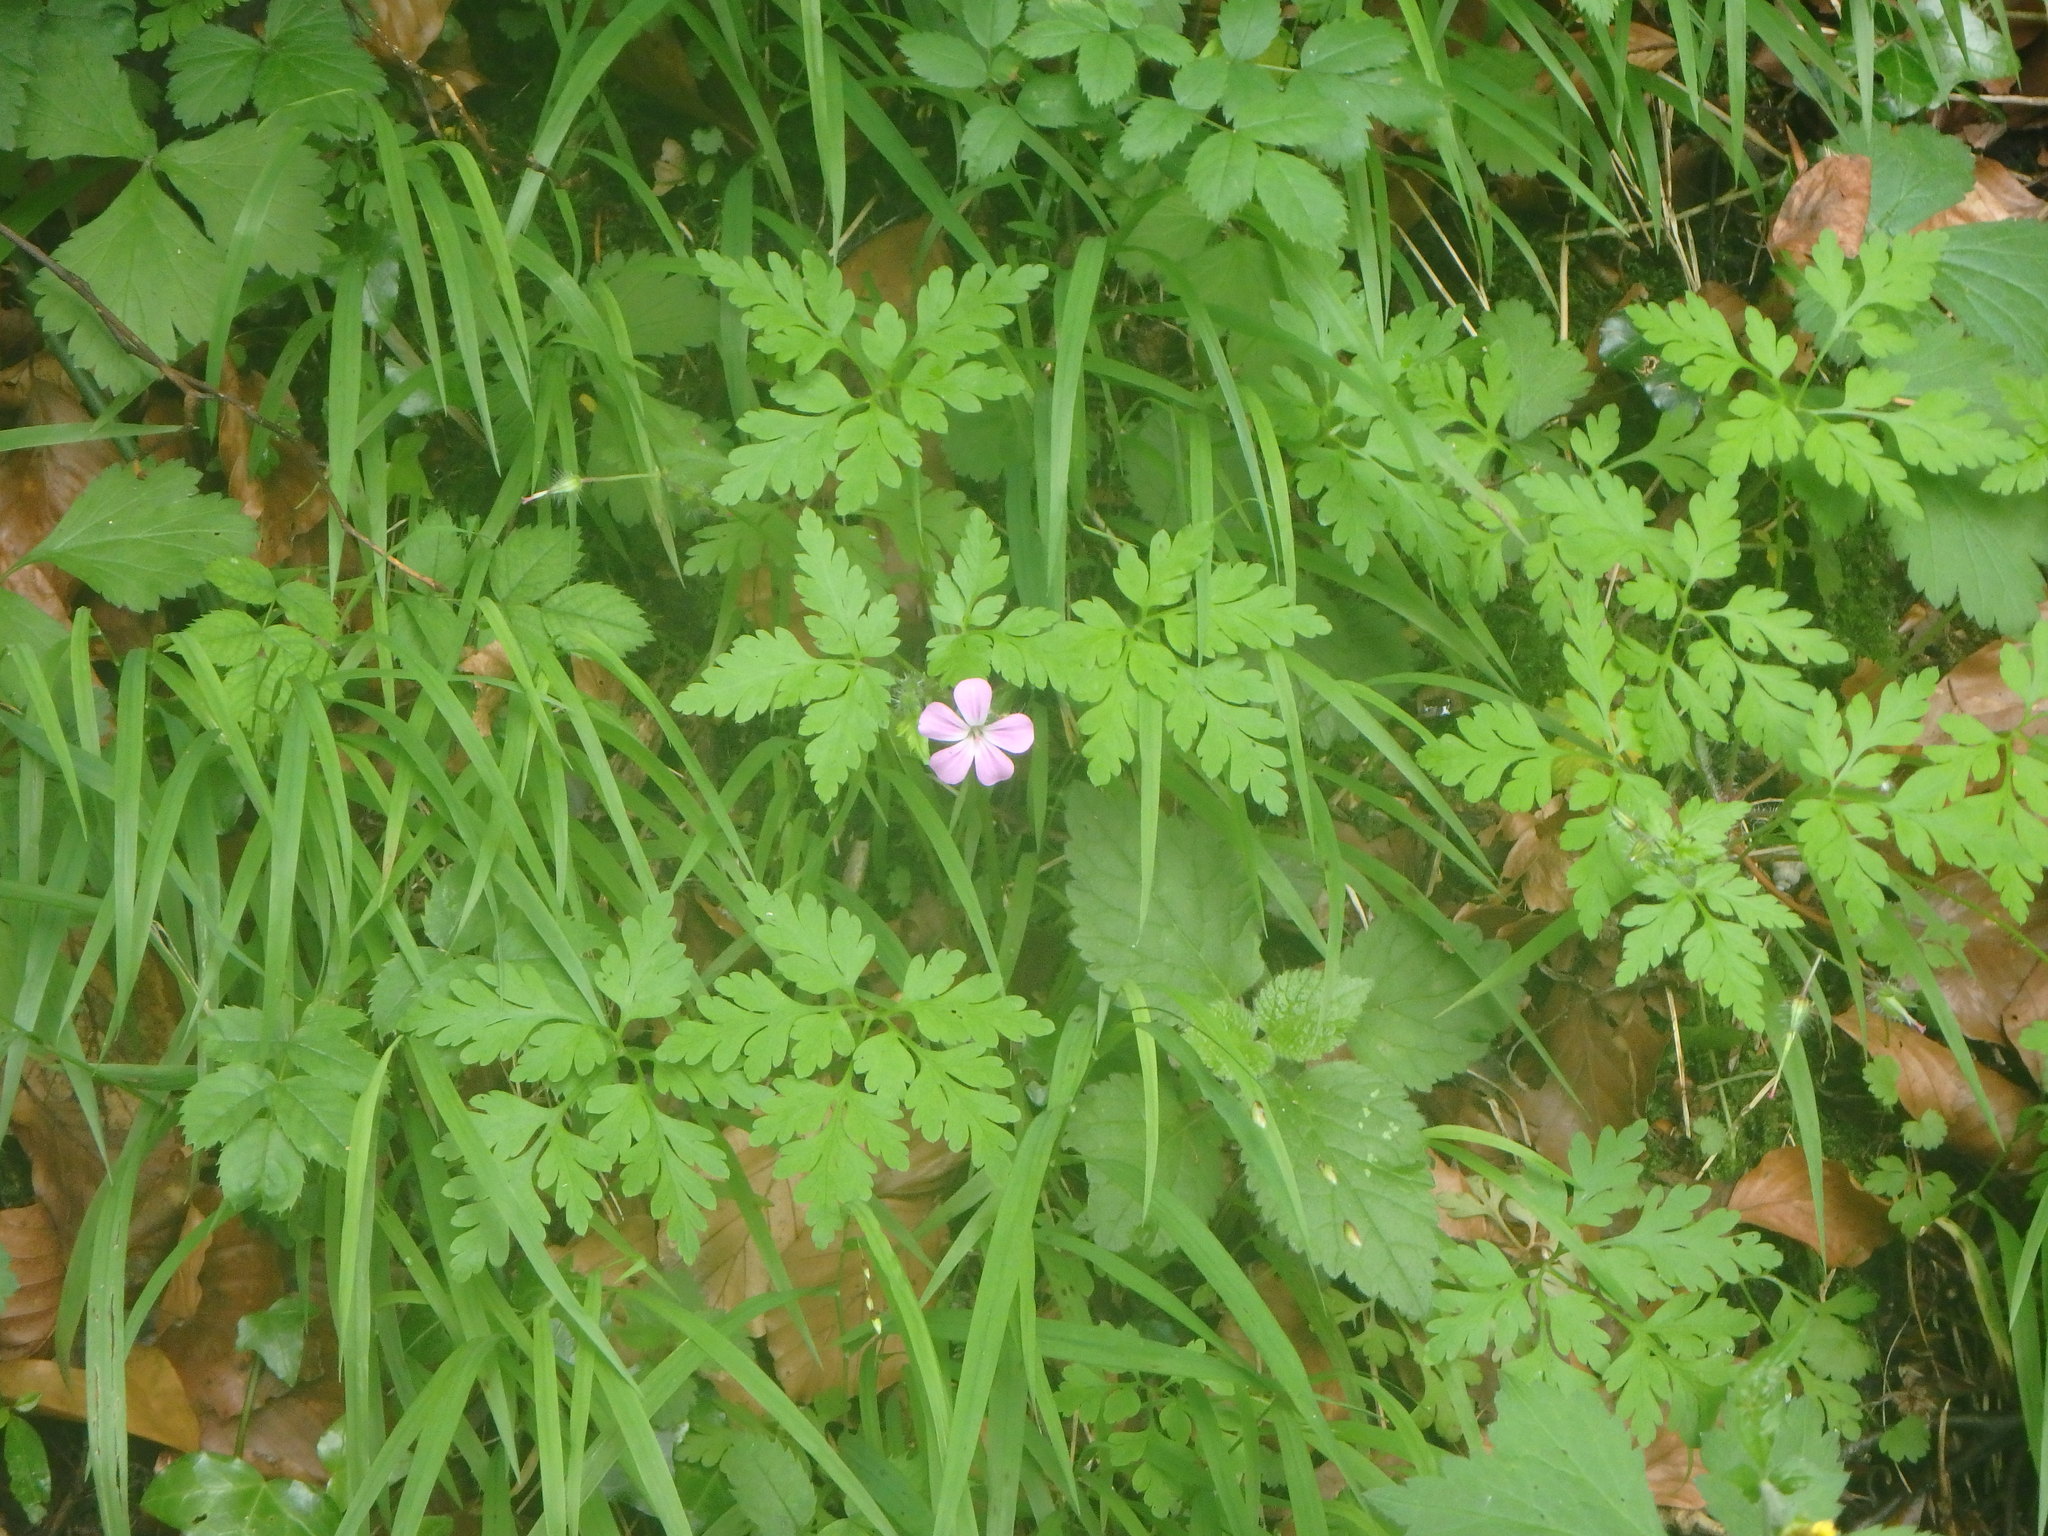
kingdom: Plantae
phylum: Tracheophyta
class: Magnoliopsida
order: Geraniales
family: Geraniaceae
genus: Geranium
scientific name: Geranium robertianum
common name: Herb-robert
